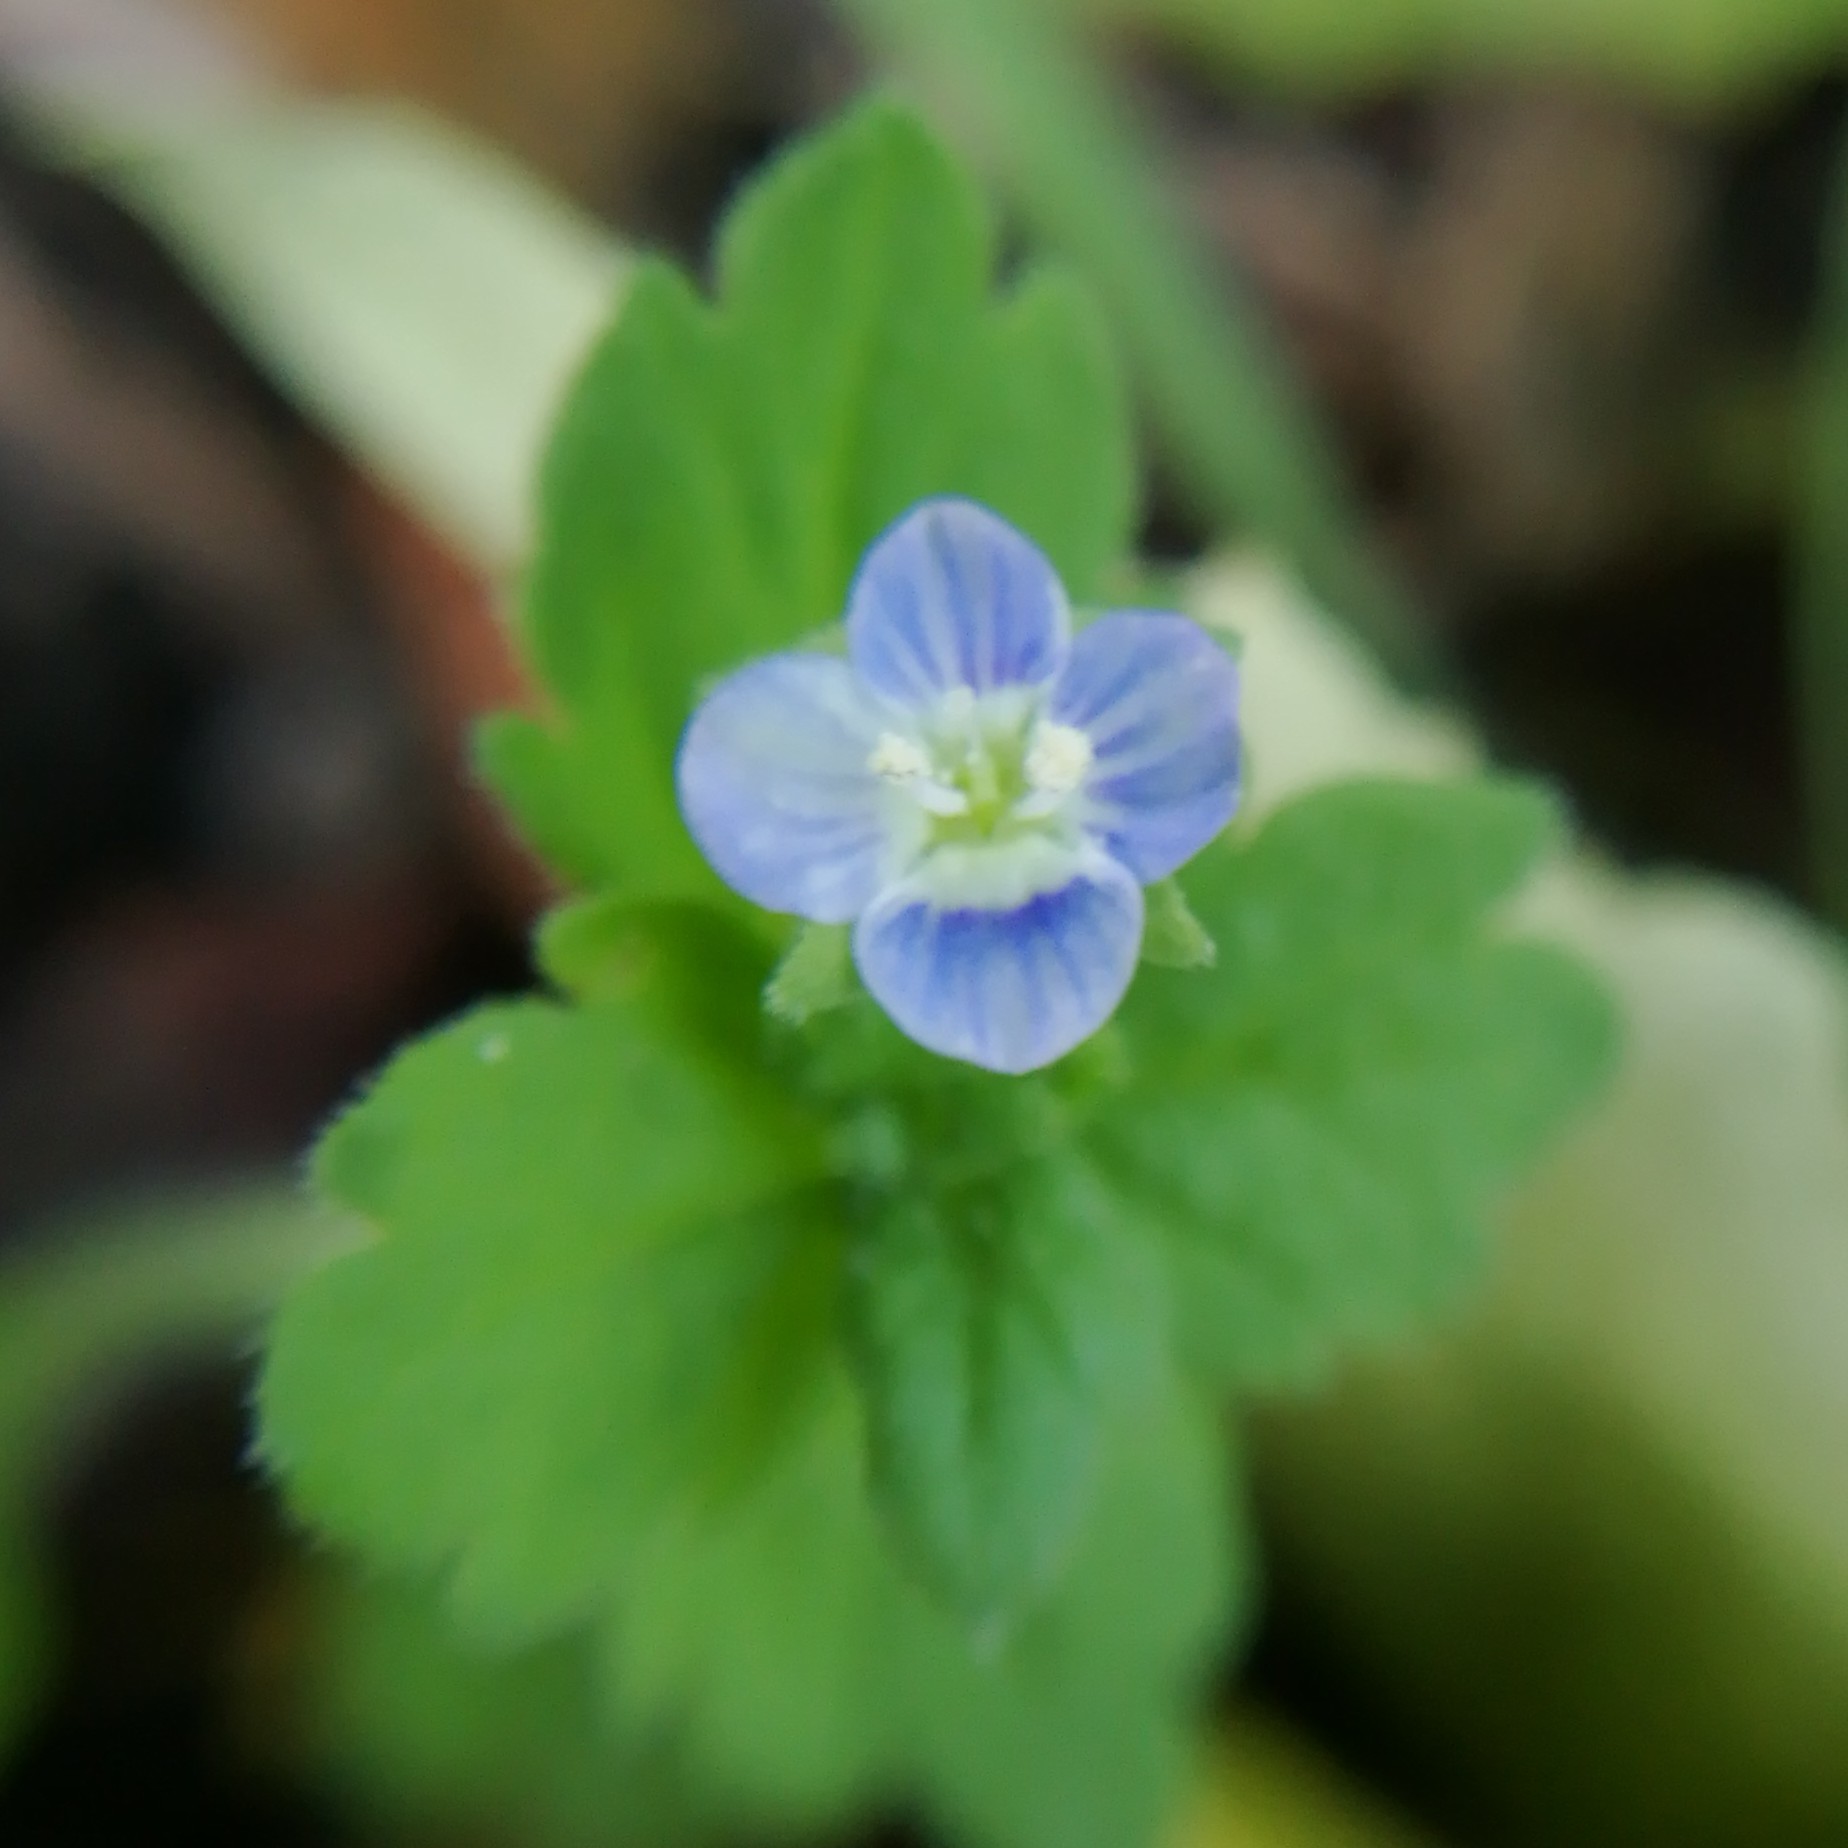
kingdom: Plantae
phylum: Tracheophyta
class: Magnoliopsida
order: Lamiales
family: Plantaginaceae
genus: Veronica
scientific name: Veronica persica
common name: Common field-speedwell
